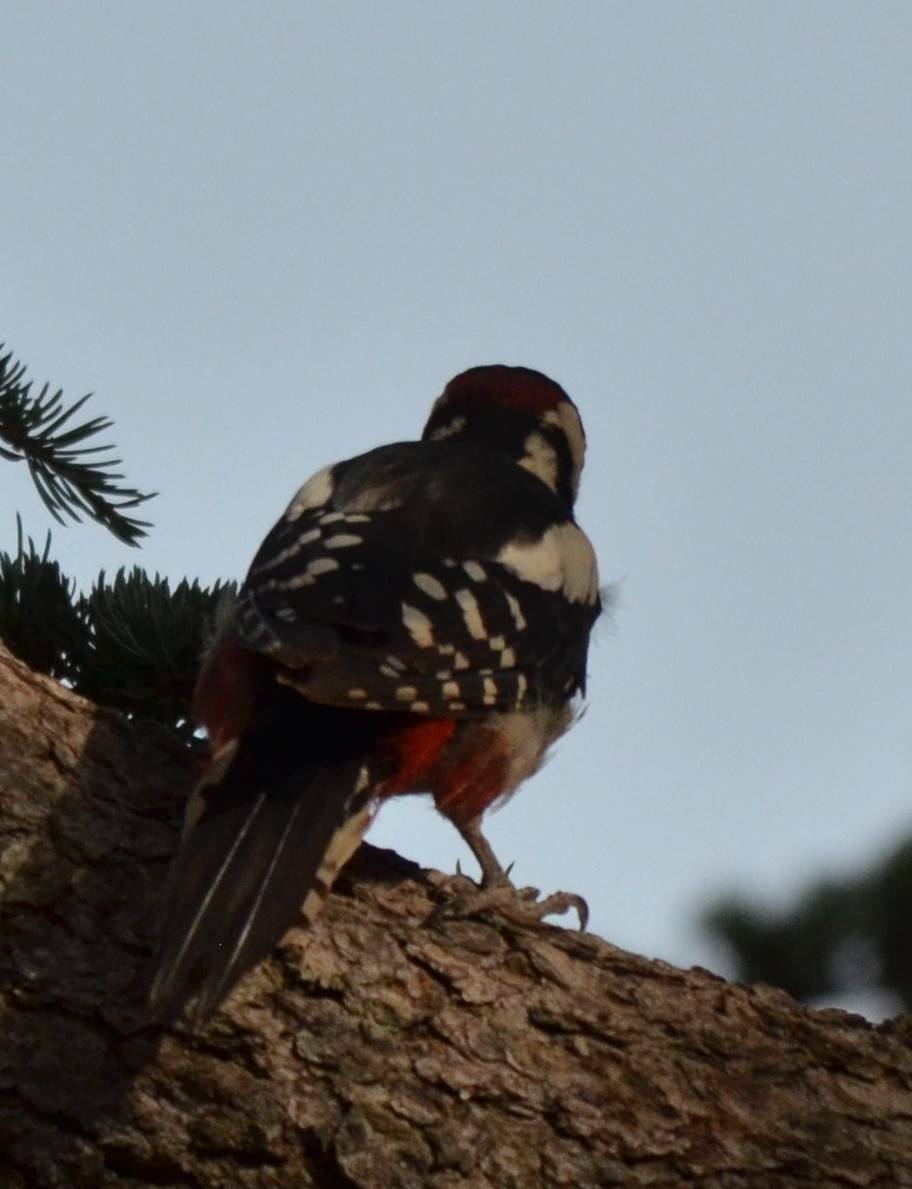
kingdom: Animalia
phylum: Chordata
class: Aves
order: Piciformes
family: Picidae
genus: Dendrocopos
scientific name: Dendrocopos major
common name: Great spotted woodpecker
